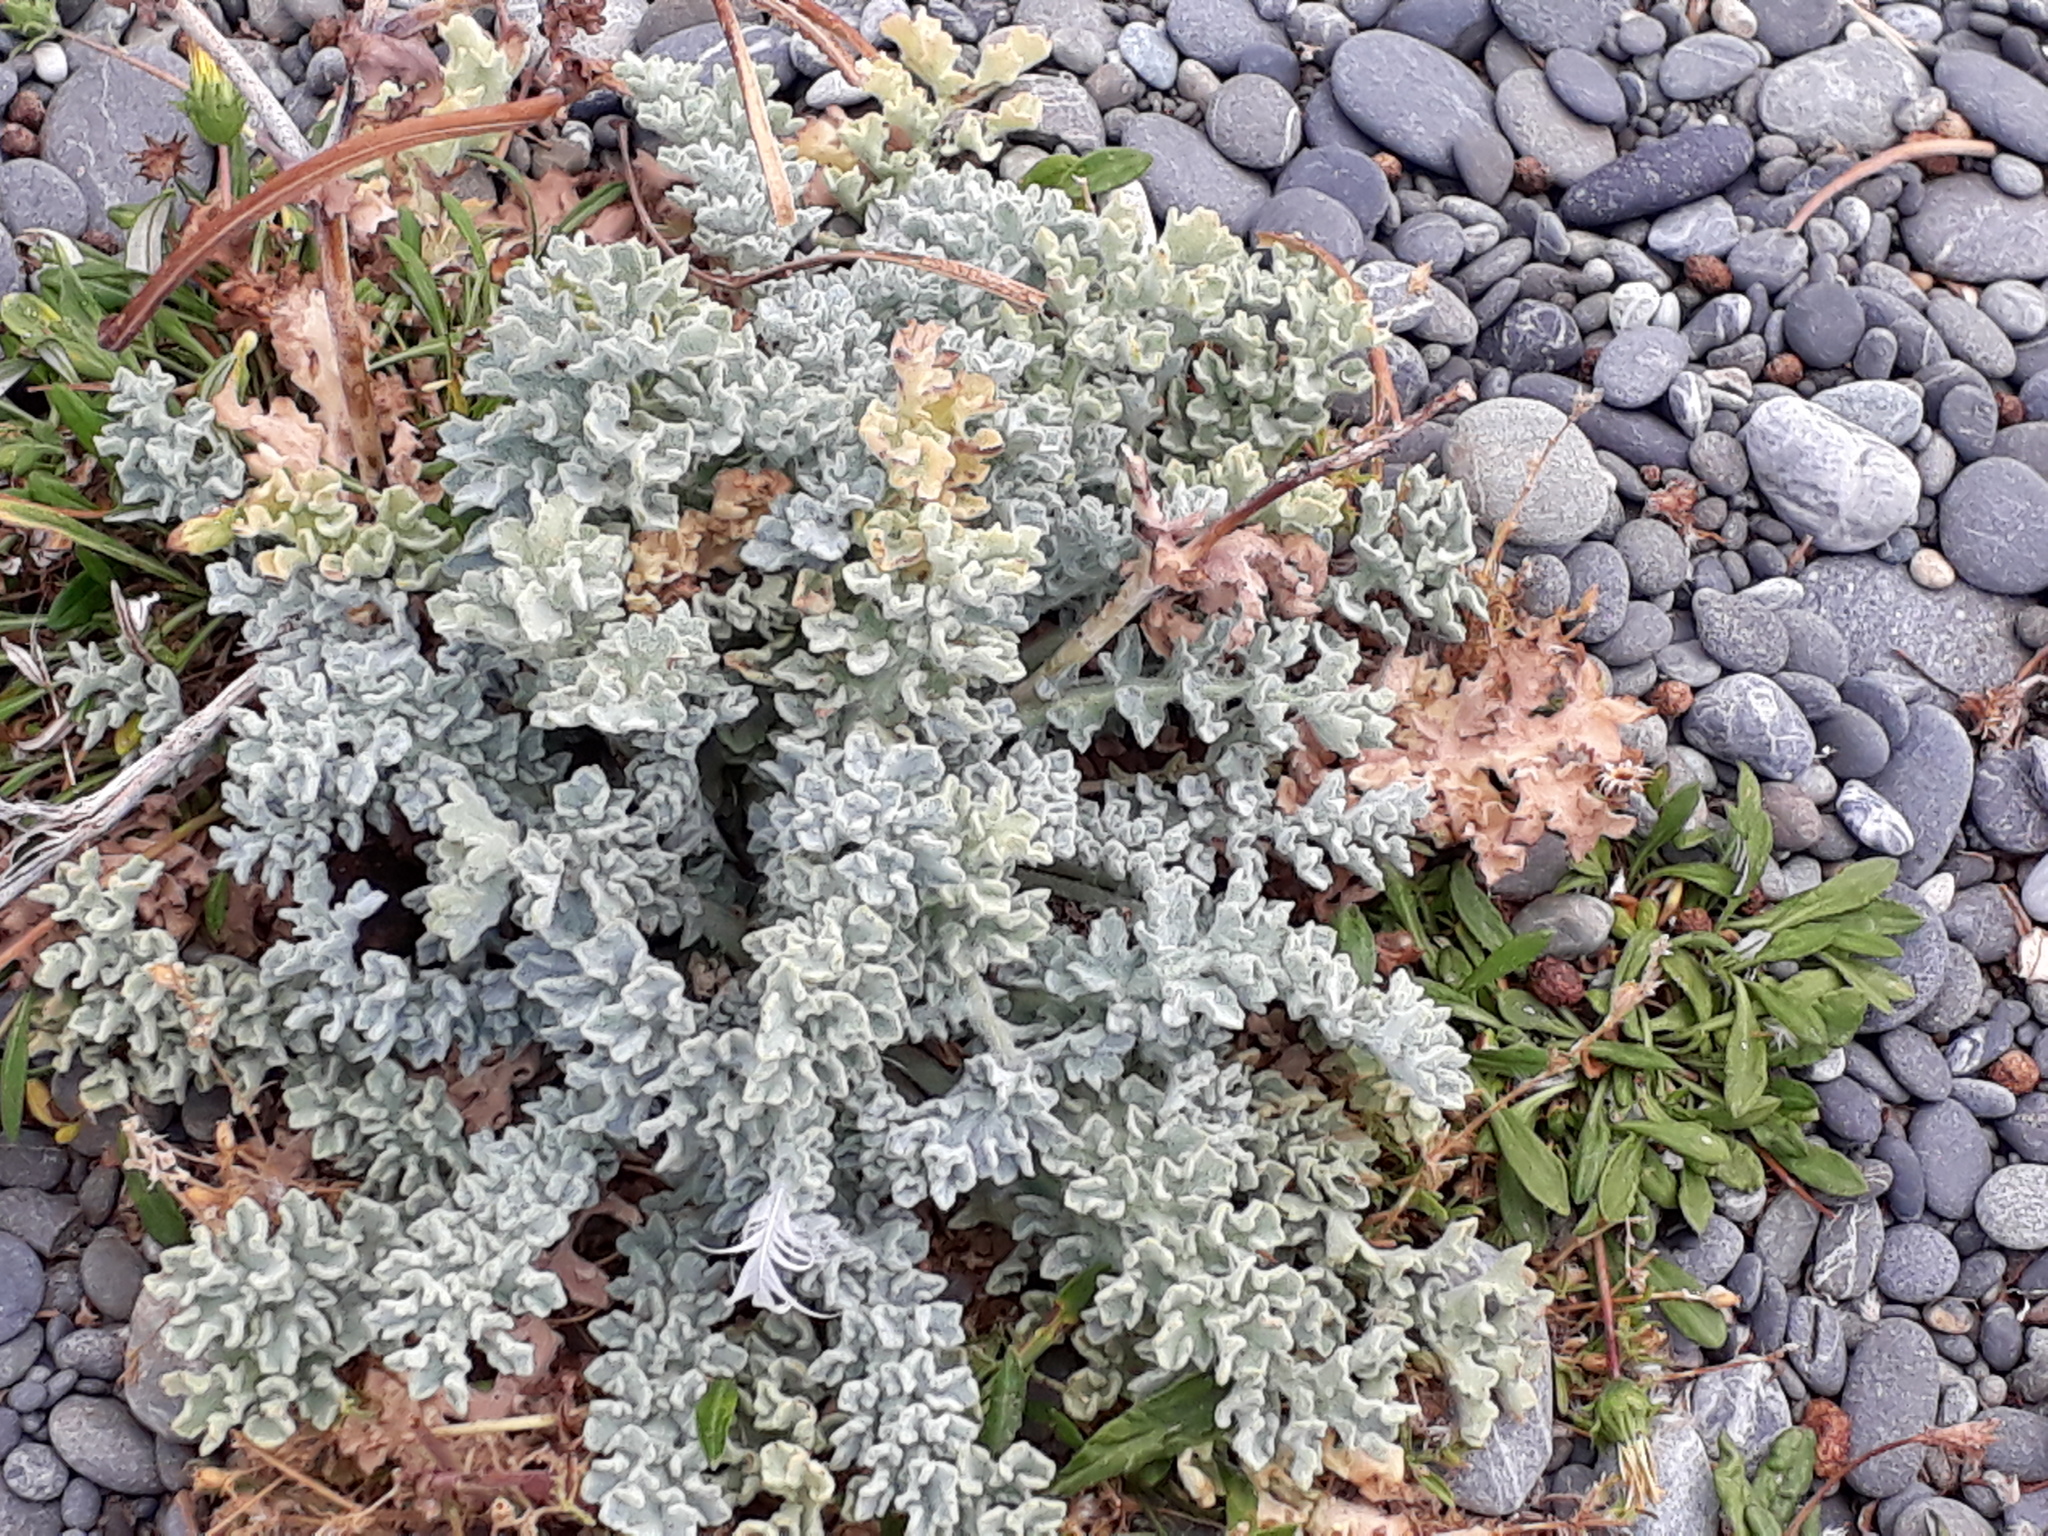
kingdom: Plantae
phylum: Tracheophyta
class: Magnoliopsida
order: Asterales
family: Asteraceae
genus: Jacobaea
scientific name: Jacobaea maritima
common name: Silver ragwort
